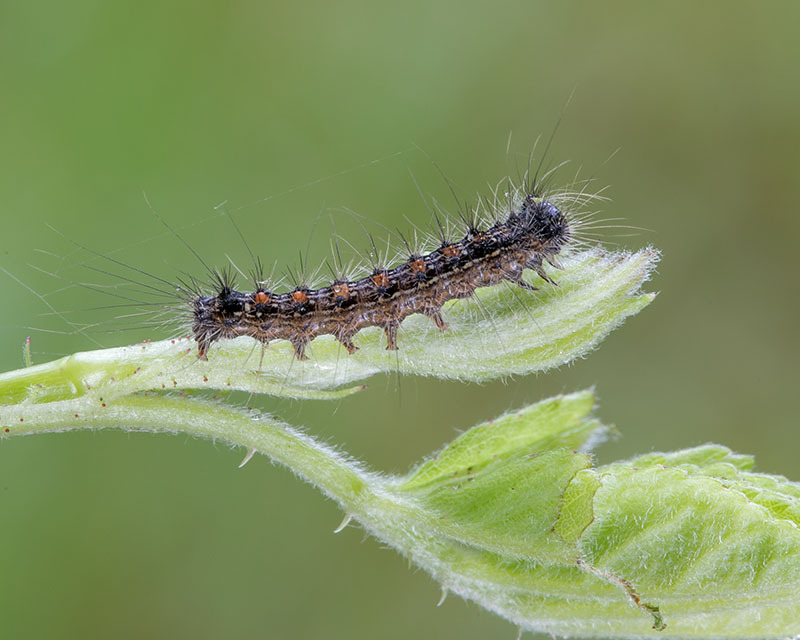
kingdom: Animalia
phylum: Arthropoda
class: Insecta
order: Lepidoptera
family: Erebidae
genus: Lymantria
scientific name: Lymantria dispar
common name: Gypsy moth
